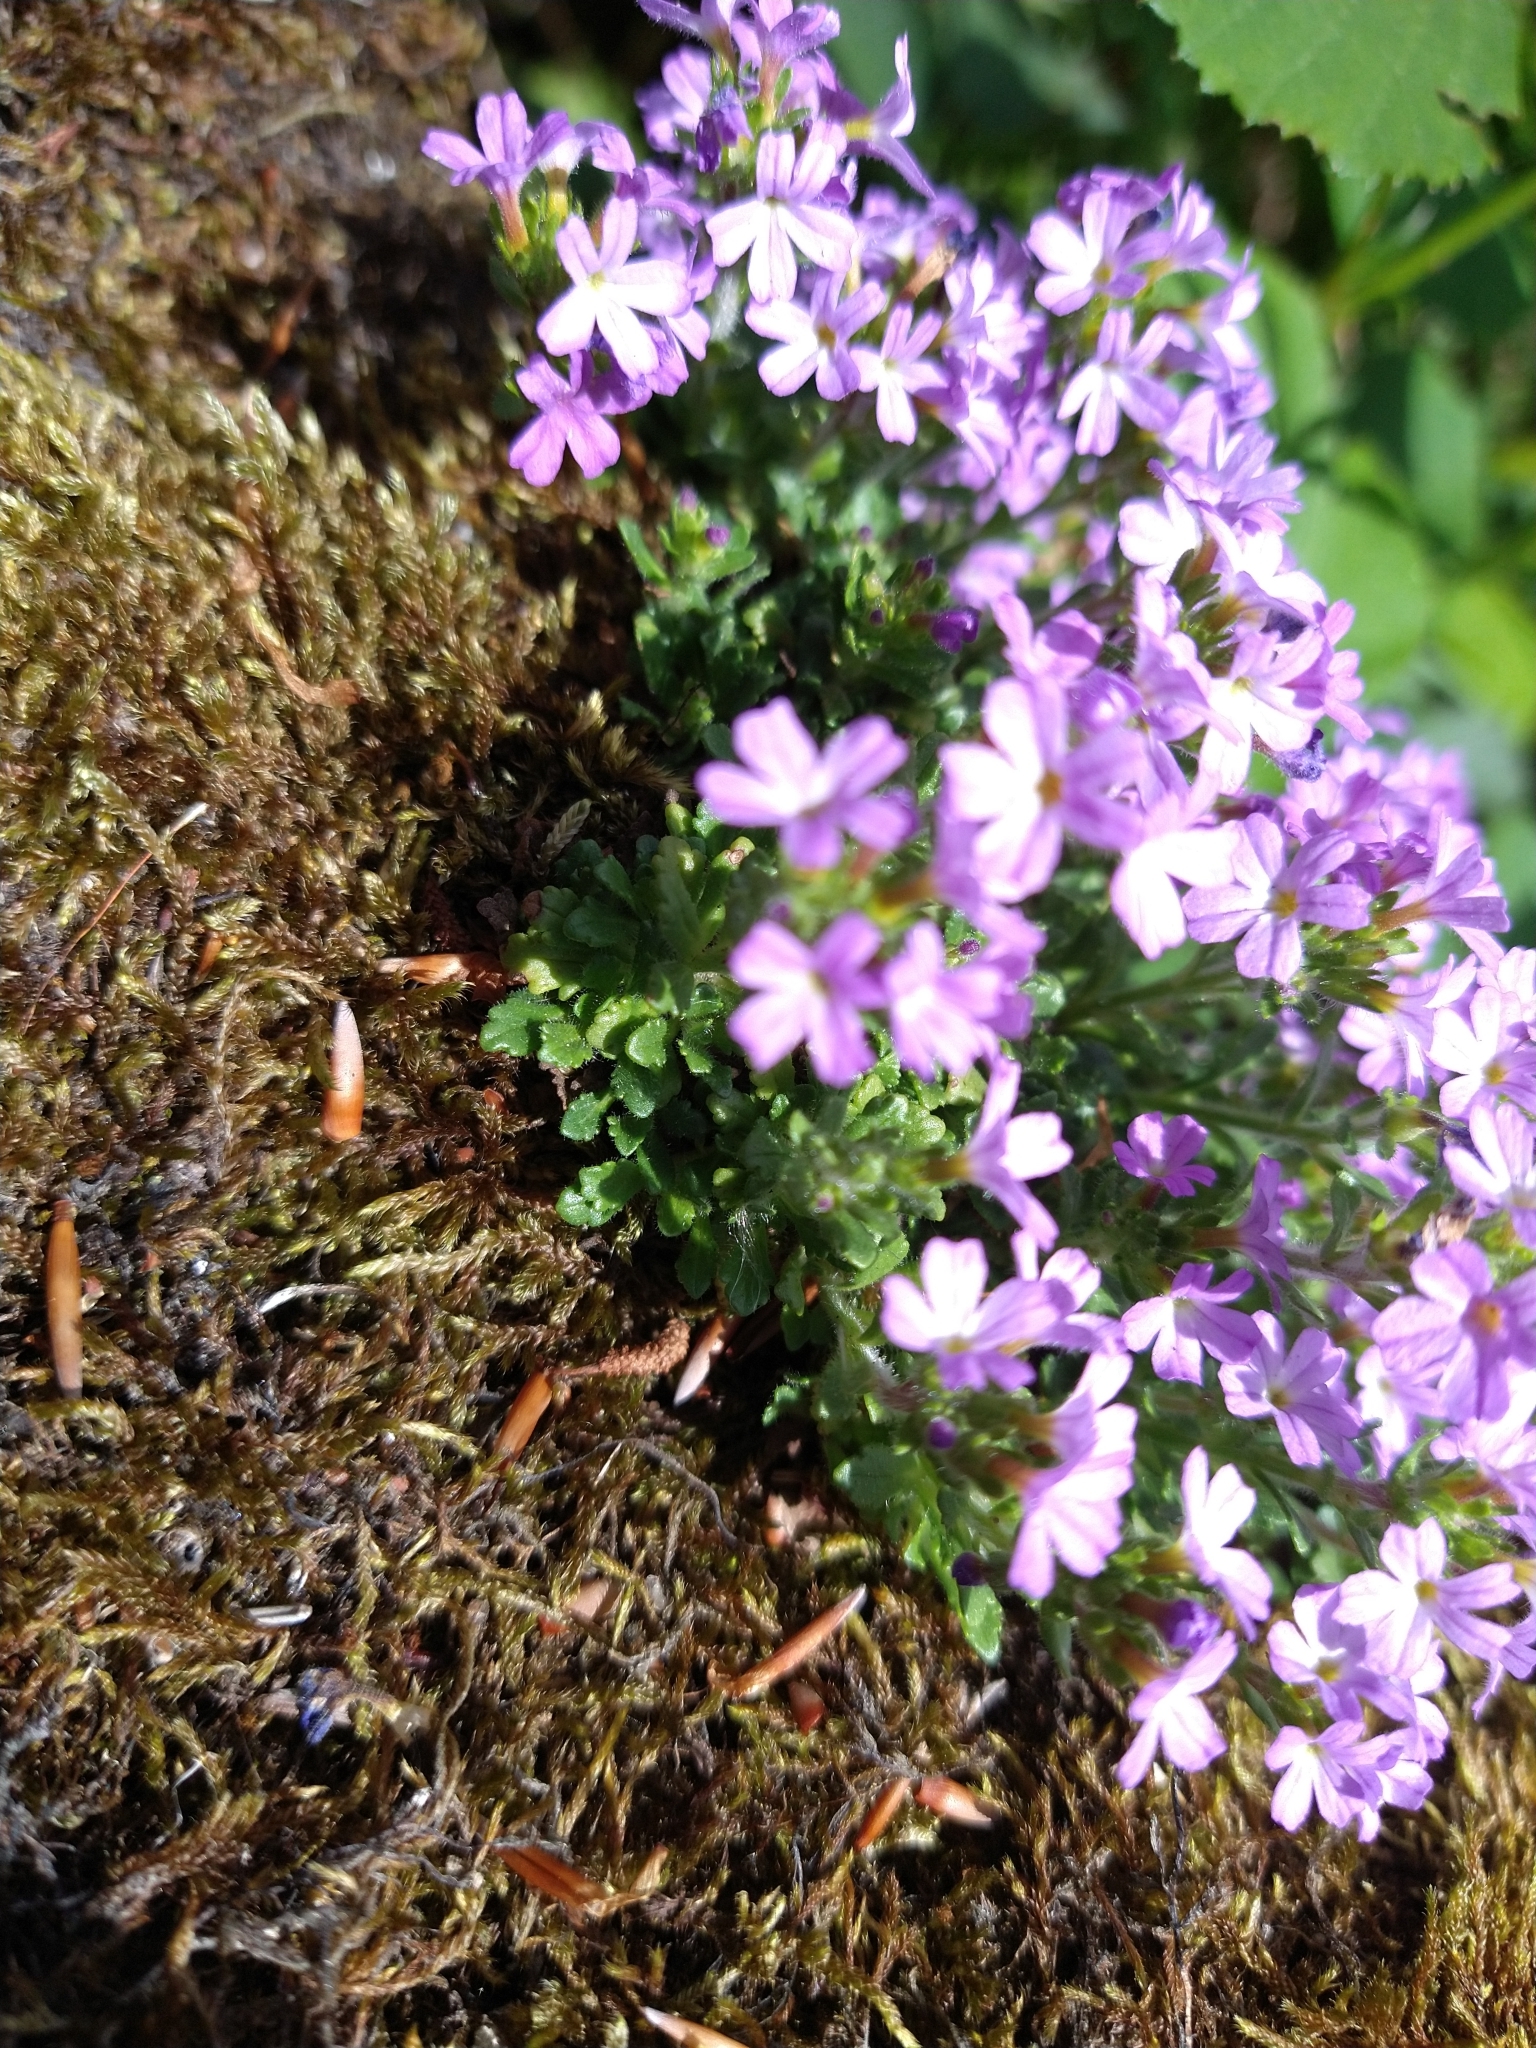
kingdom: Plantae
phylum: Tracheophyta
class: Magnoliopsida
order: Lamiales
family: Plantaginaceae
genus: Erinus
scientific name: Erinus alpinus
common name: Fairy foxglove
